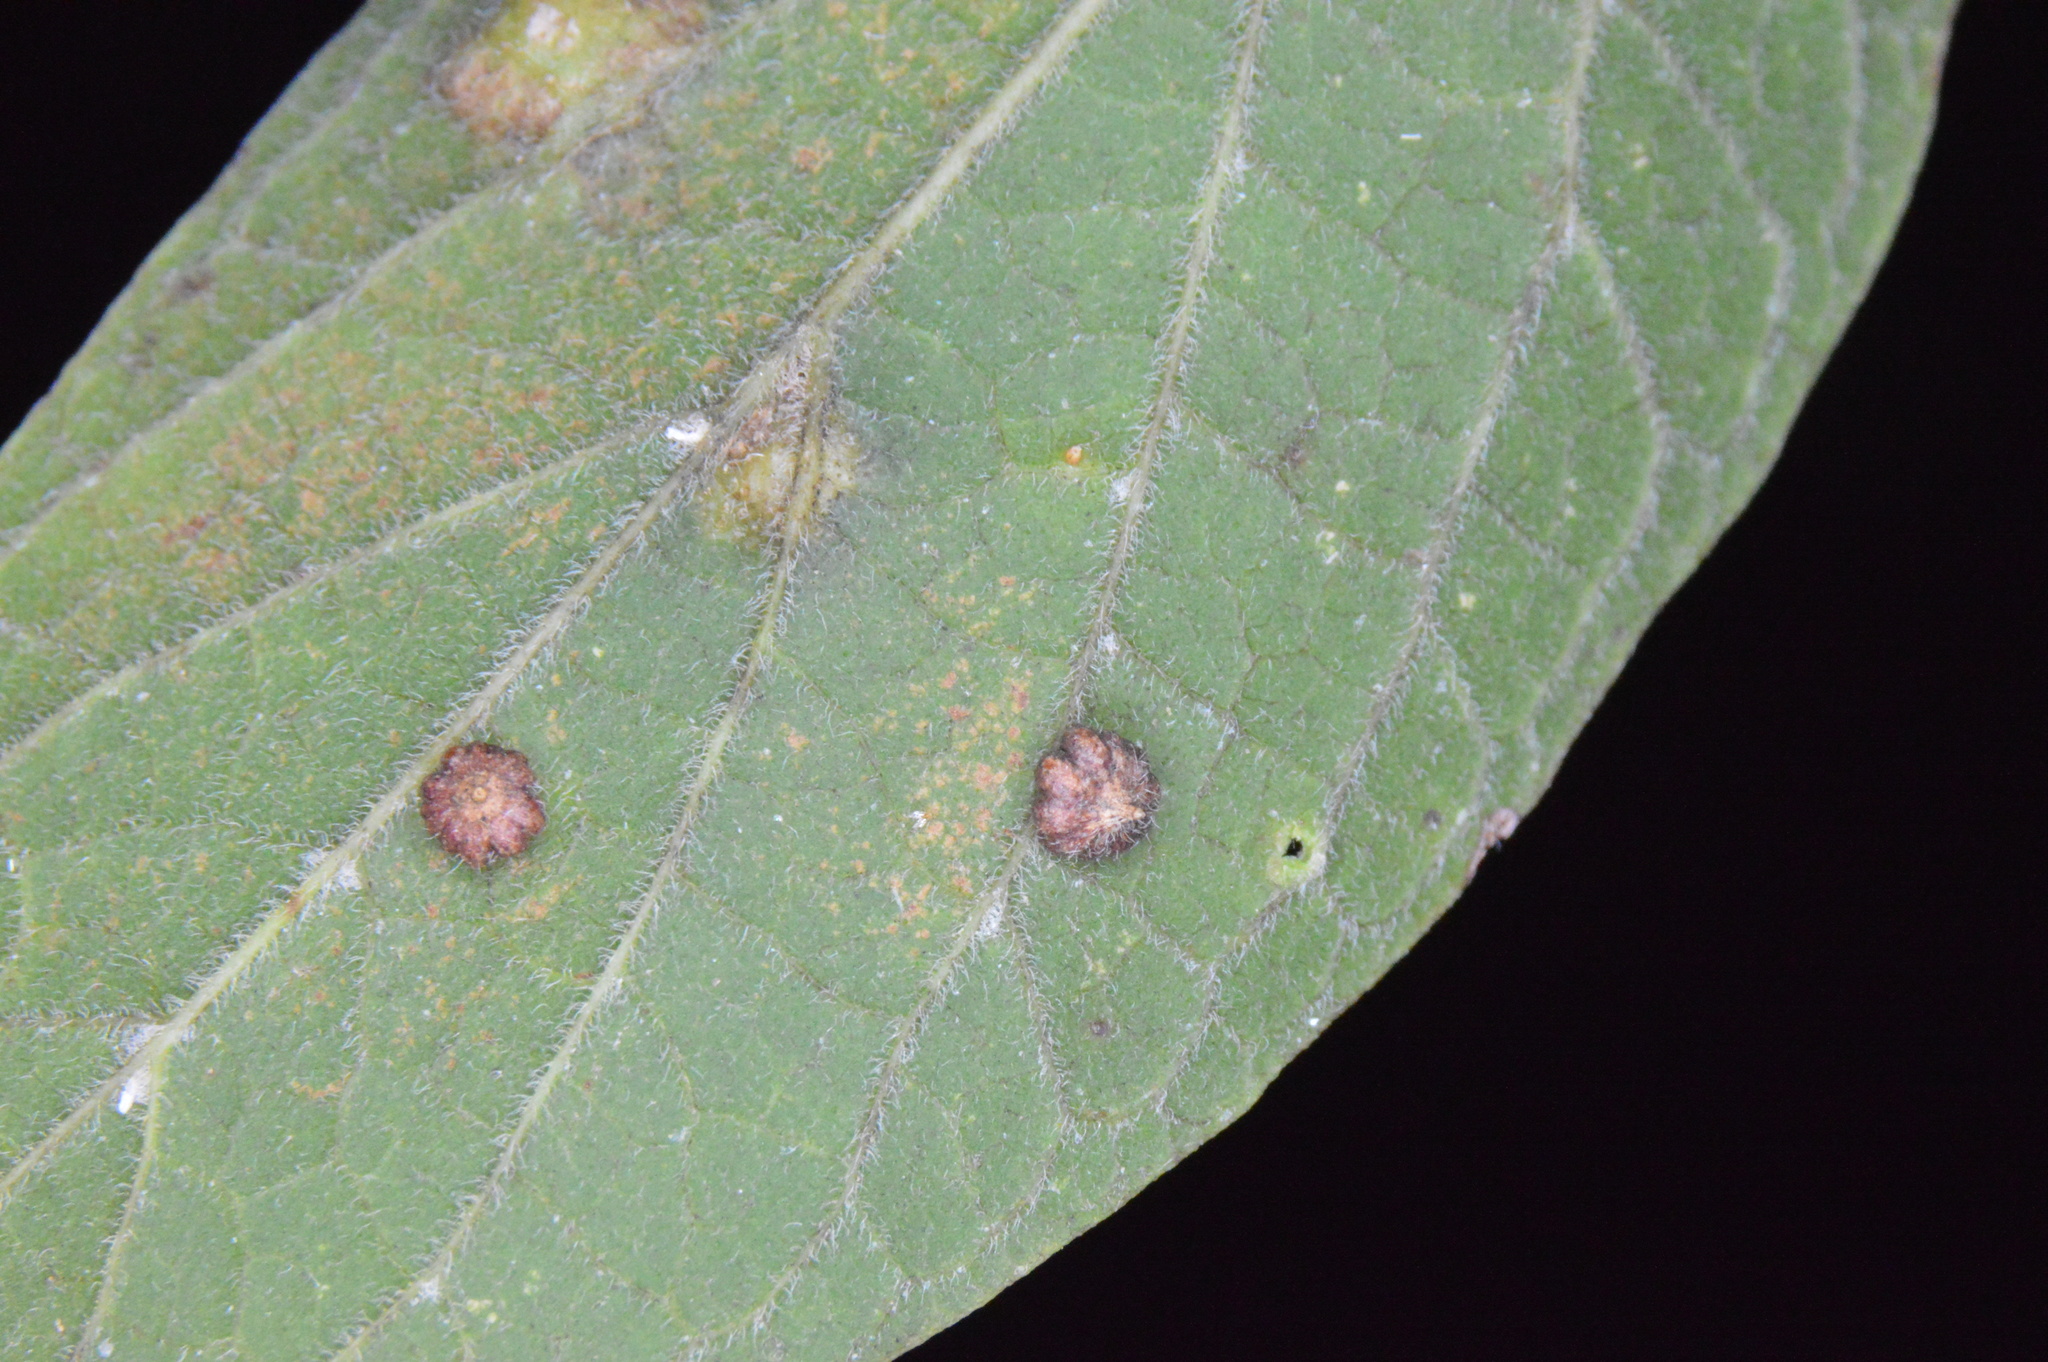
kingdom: Animalia
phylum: Arthropoda
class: Insecta
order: Diptera
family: Cecidomyiidae
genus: Celticecis
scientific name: Celticecis capsularis
